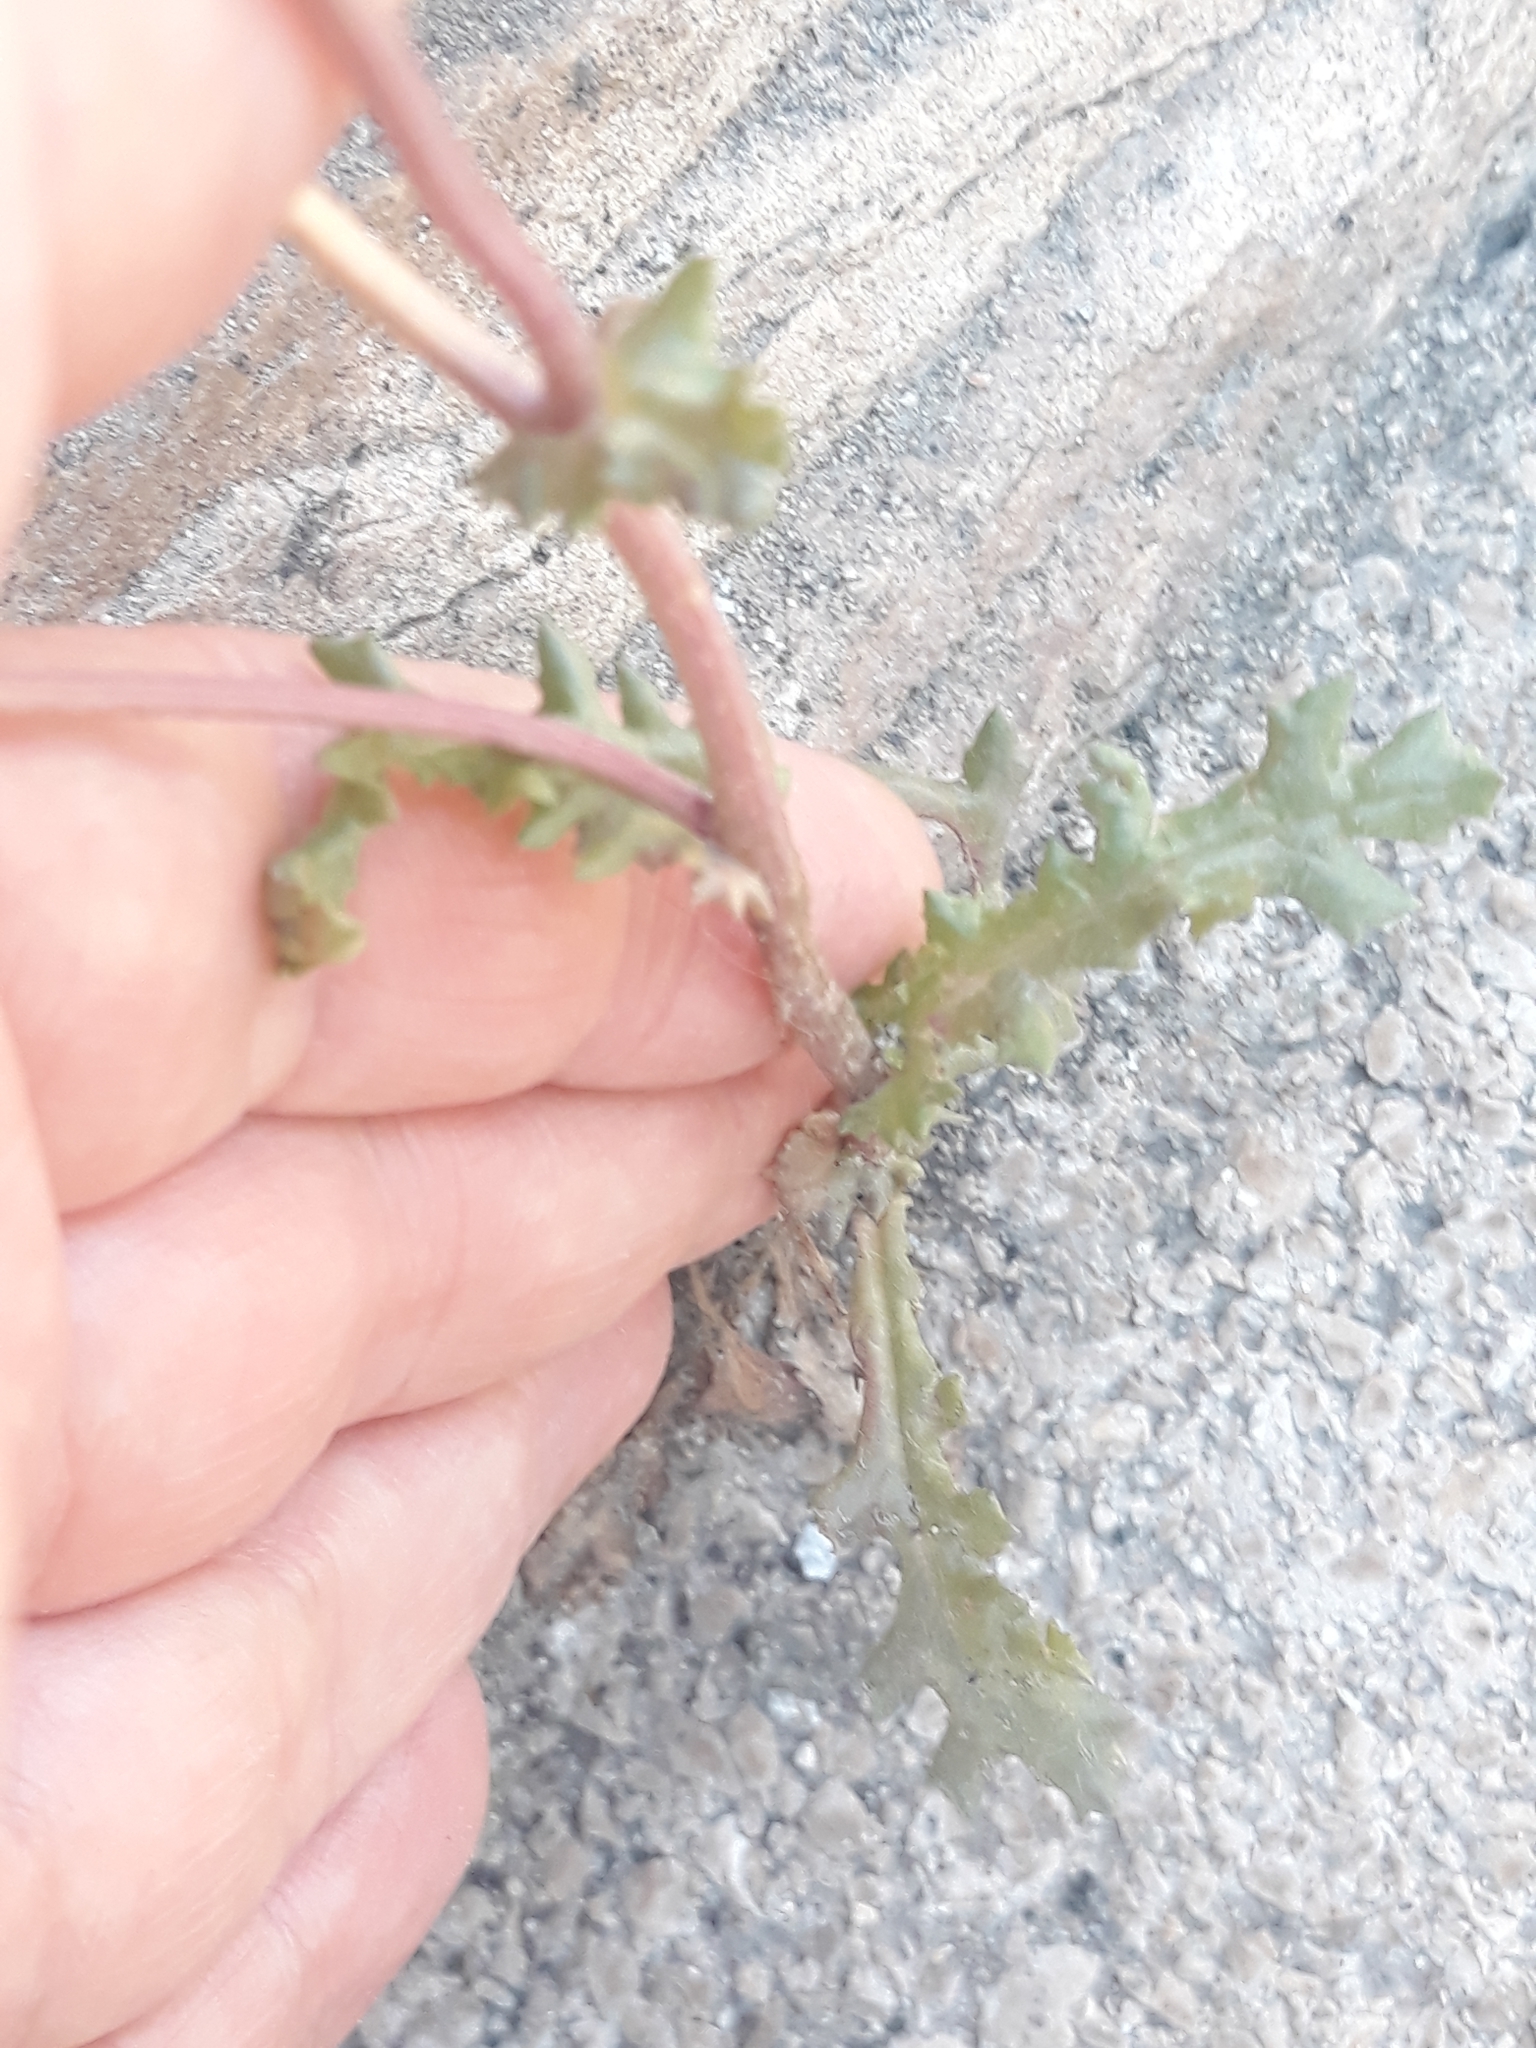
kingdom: Plantae
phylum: Tracheophyta
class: Magnoliopsida
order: Asterales
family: Asteraceae
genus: Senecio
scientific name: Senecio vulgaris
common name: Old-man-in-the-spring
